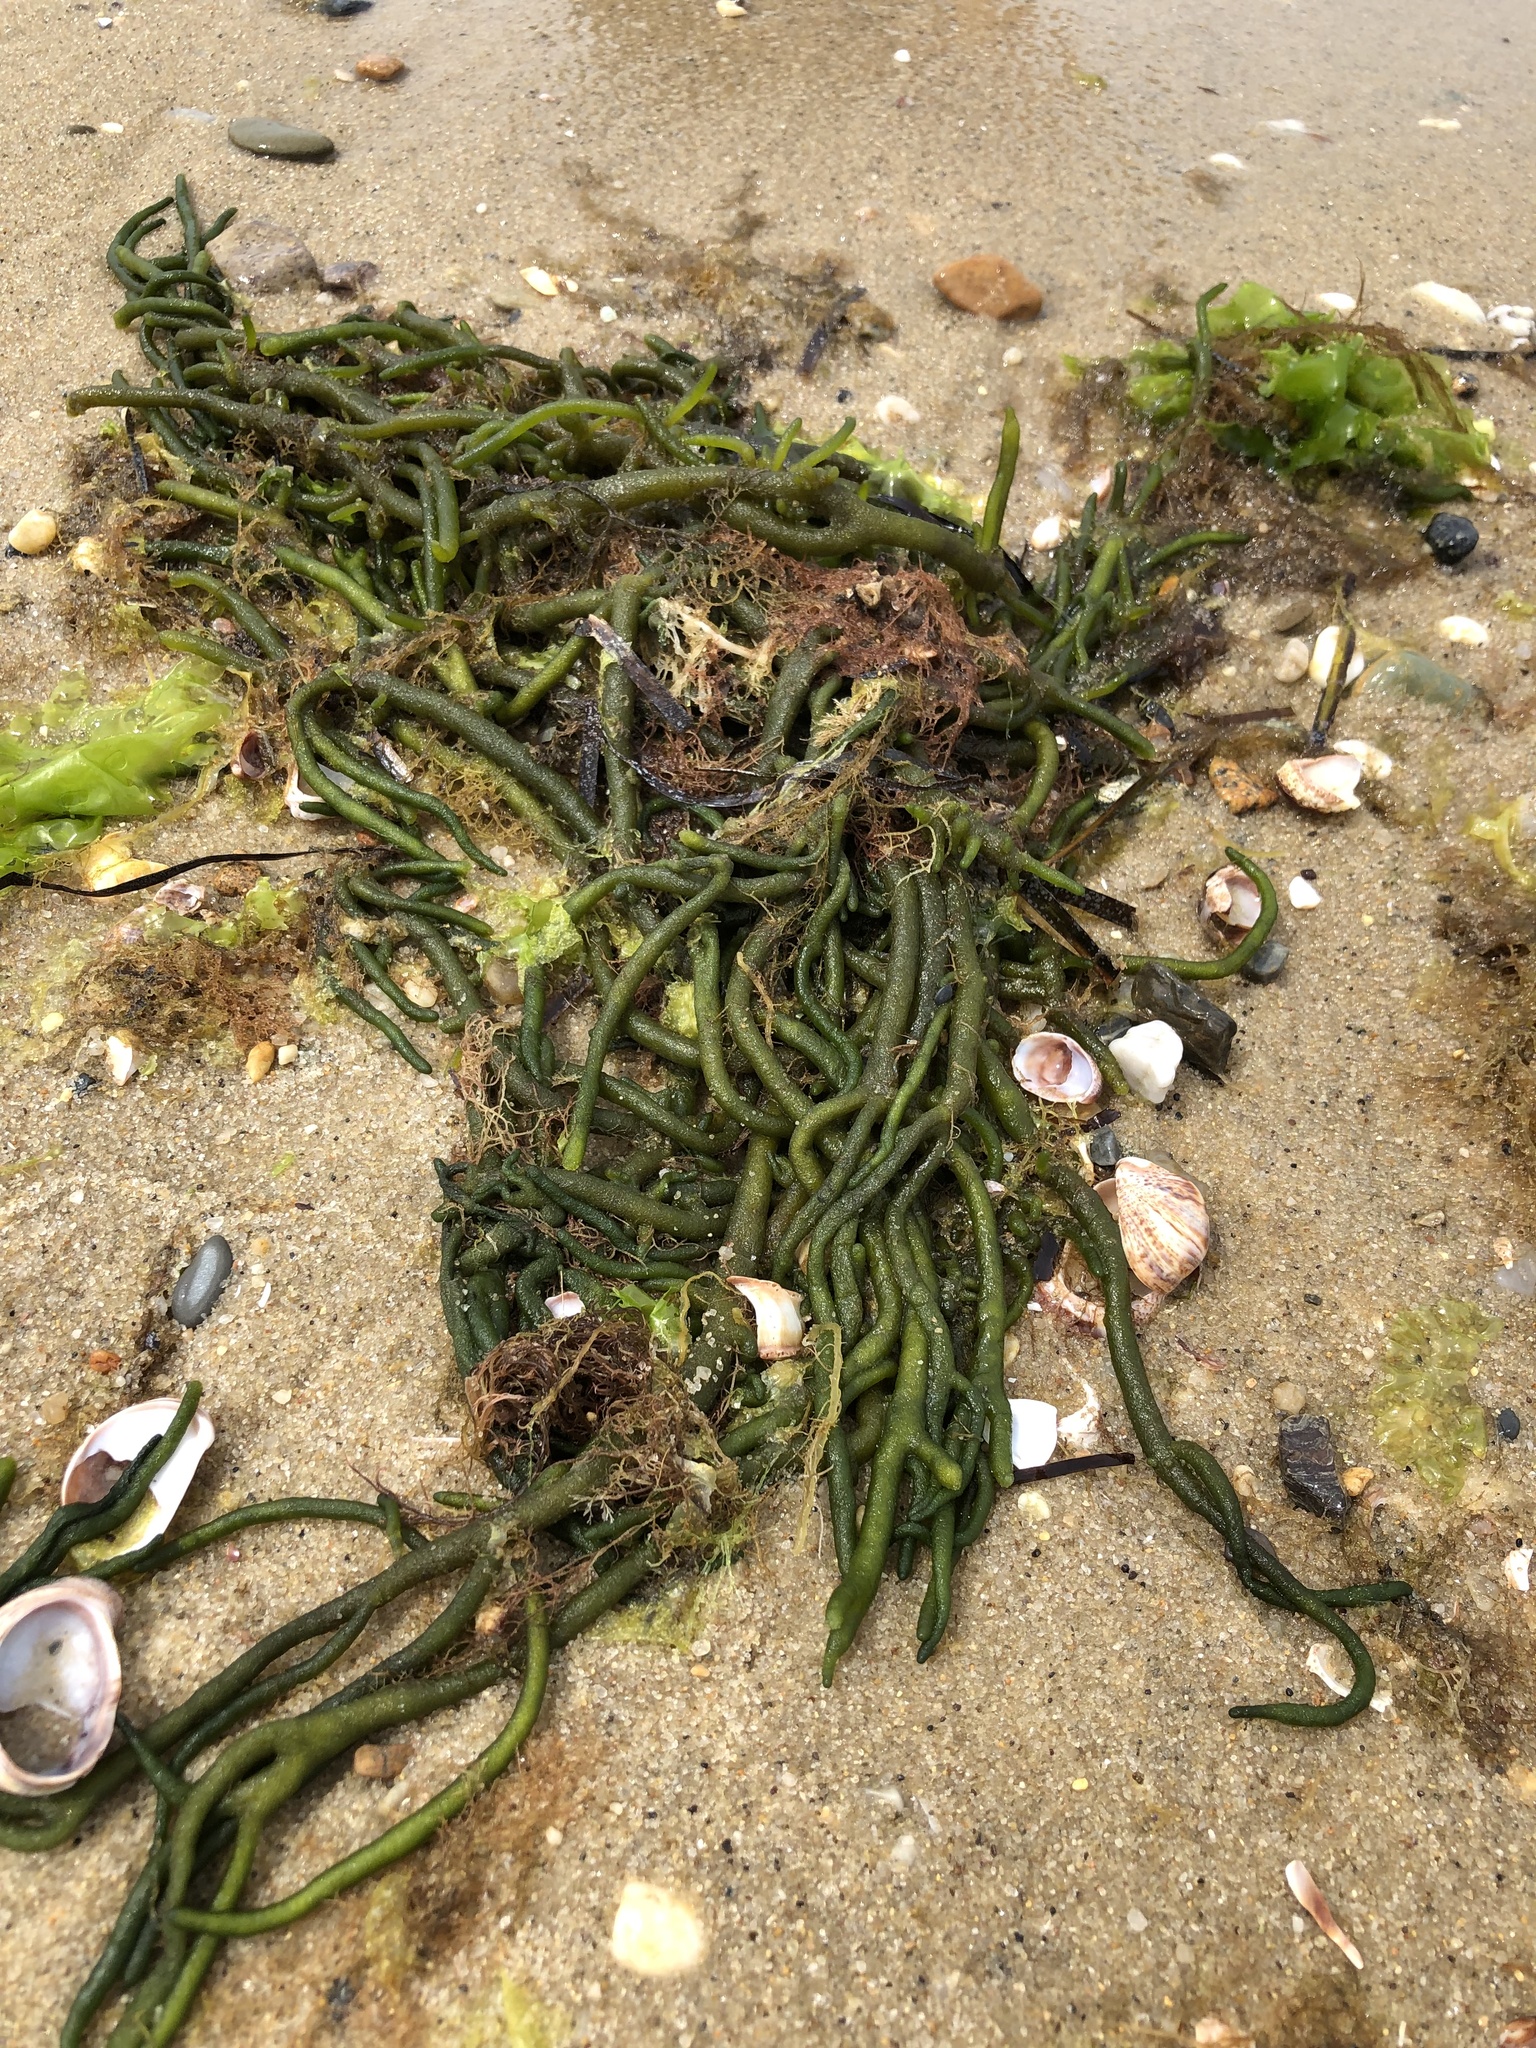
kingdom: Plantae
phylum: Chlorophyta
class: Ulvophyceae
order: Bryopsidales
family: Codiaceae
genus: Codium
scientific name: Codium fragile
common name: Dead man's fingers
